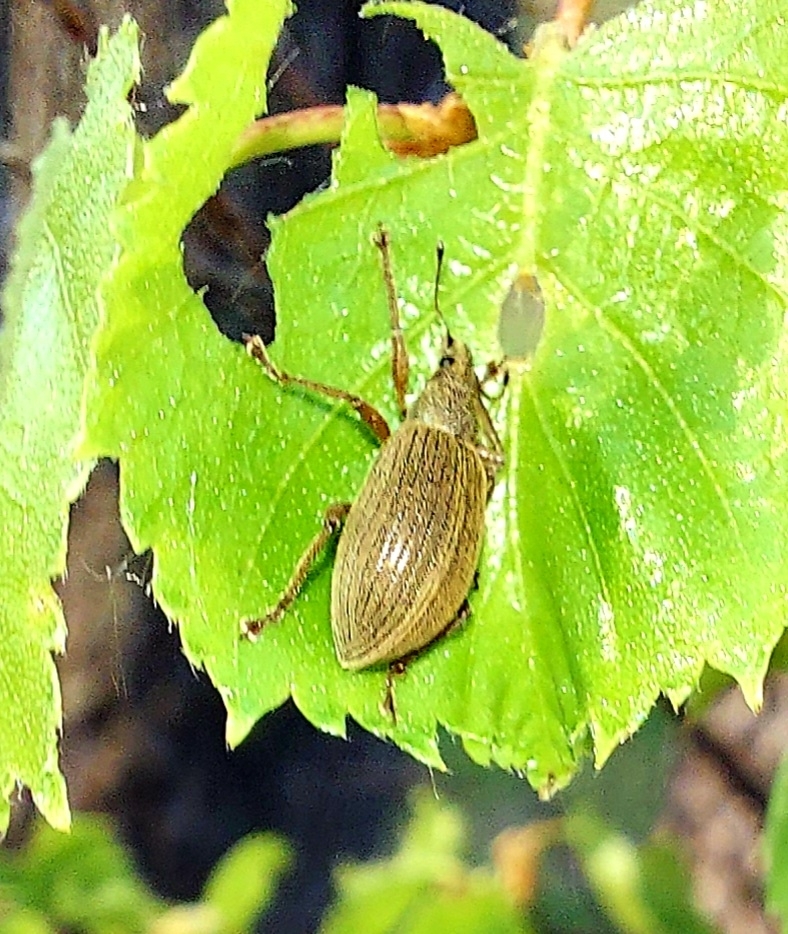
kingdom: Animalia
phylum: Arthropoda
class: Insecta
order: Coleoptera
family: Curculionidae
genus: Polydrusus
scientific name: Polydrusus mollis
